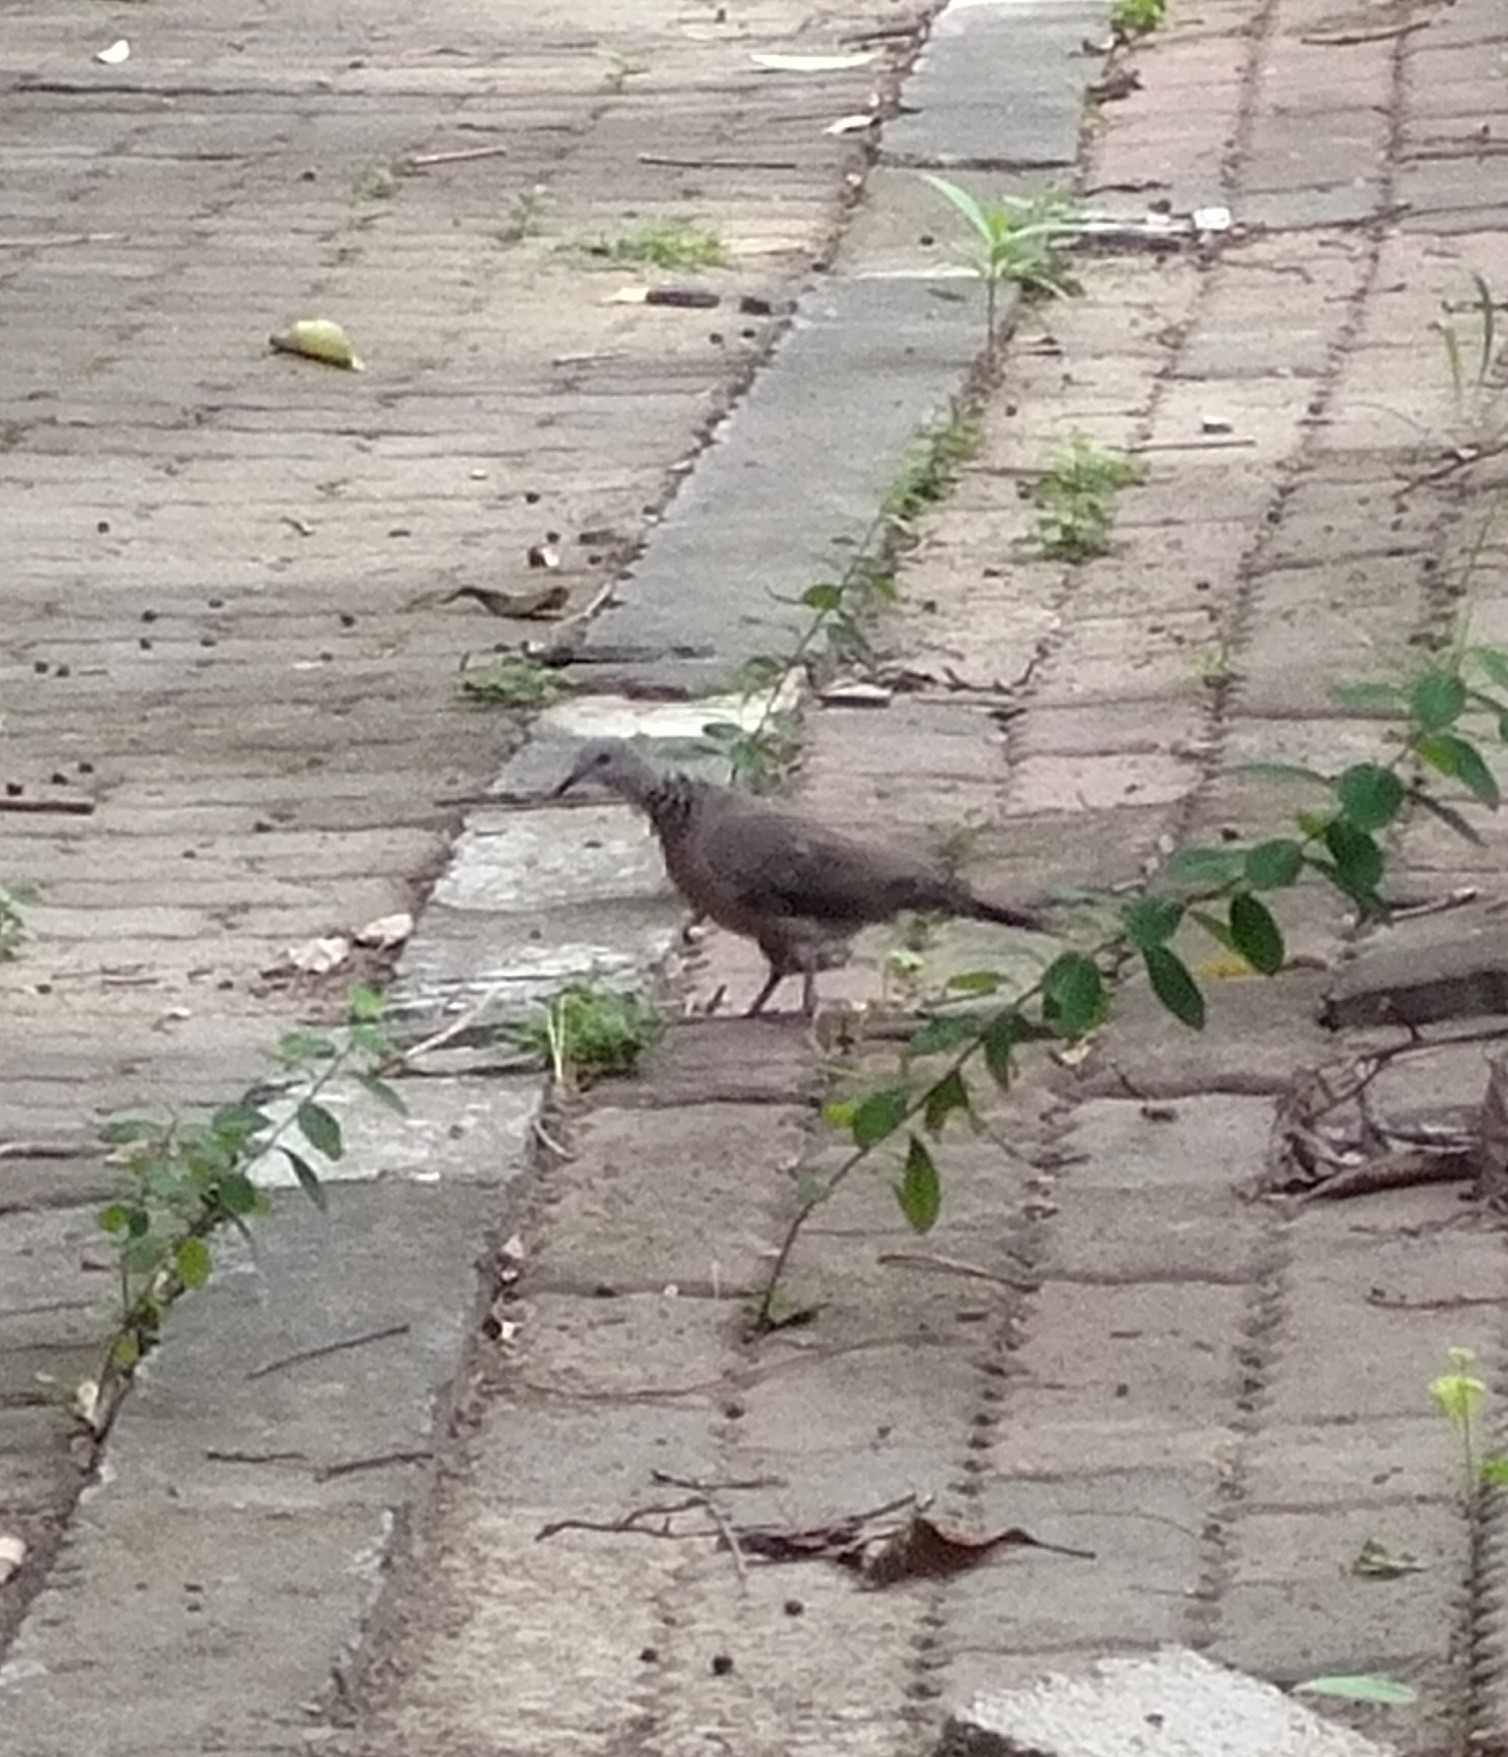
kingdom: Animalia
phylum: Chordata
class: Aves
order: Columbiformes
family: Columbidae
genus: Spilopelia
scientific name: Spilopelia chinensis
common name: Spotted dove
